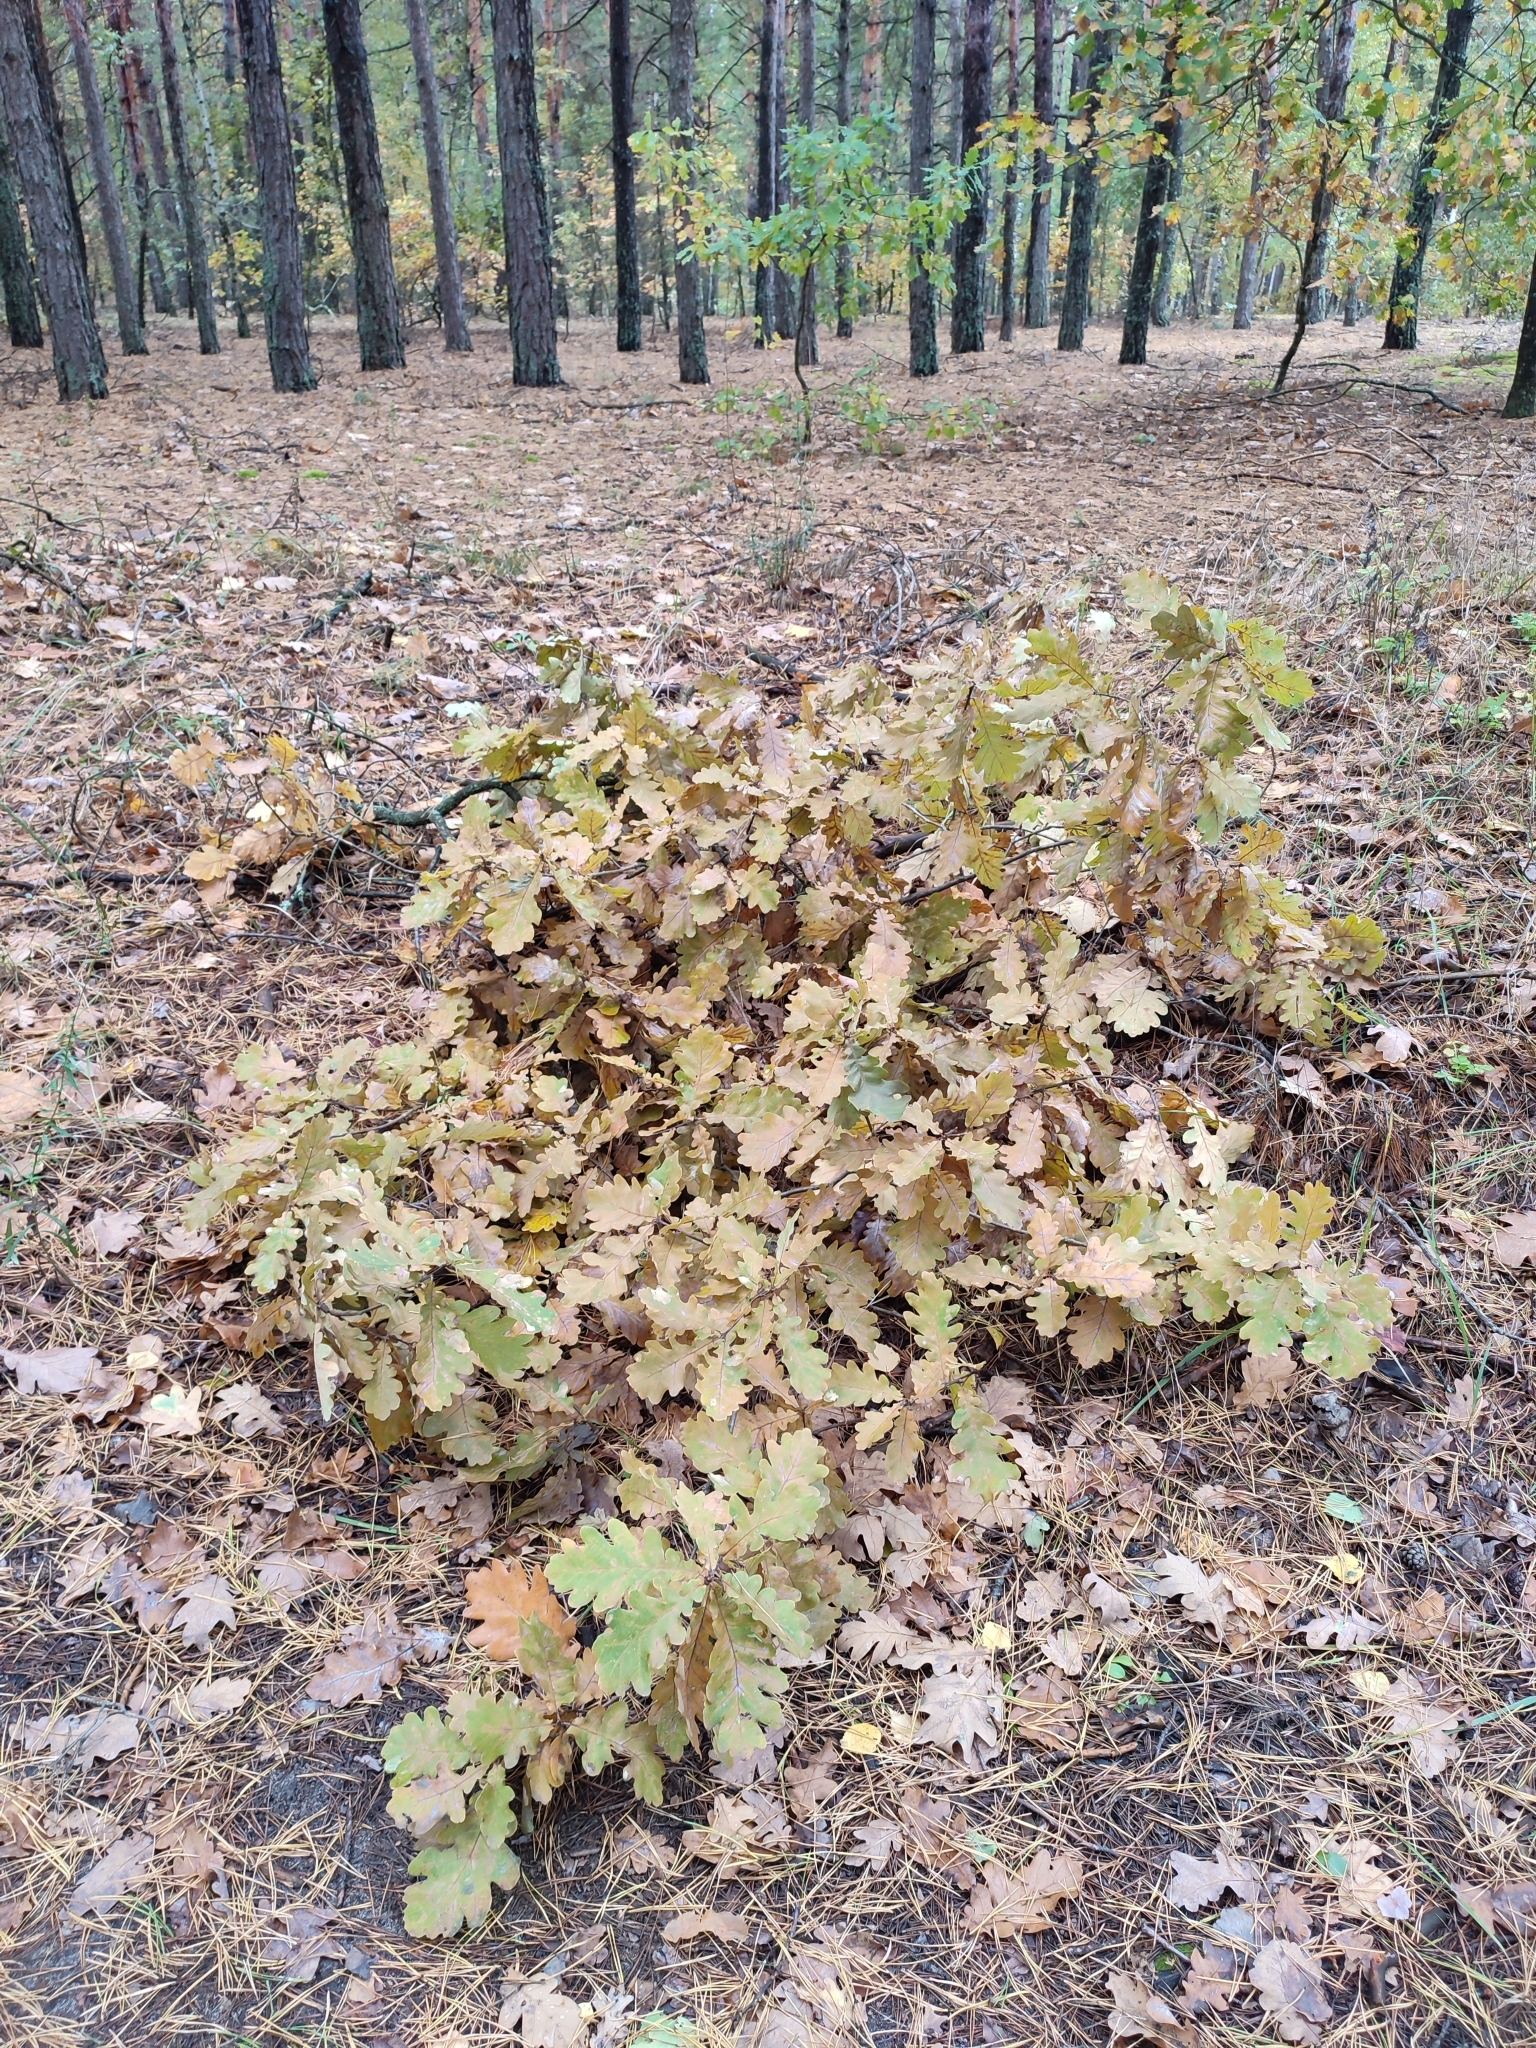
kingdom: Plantae
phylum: Tracheophyta
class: Magnoliopsida
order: Fagales
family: Fagaceae
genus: Quercus
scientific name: Quercus robur
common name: Pedunculate oak
